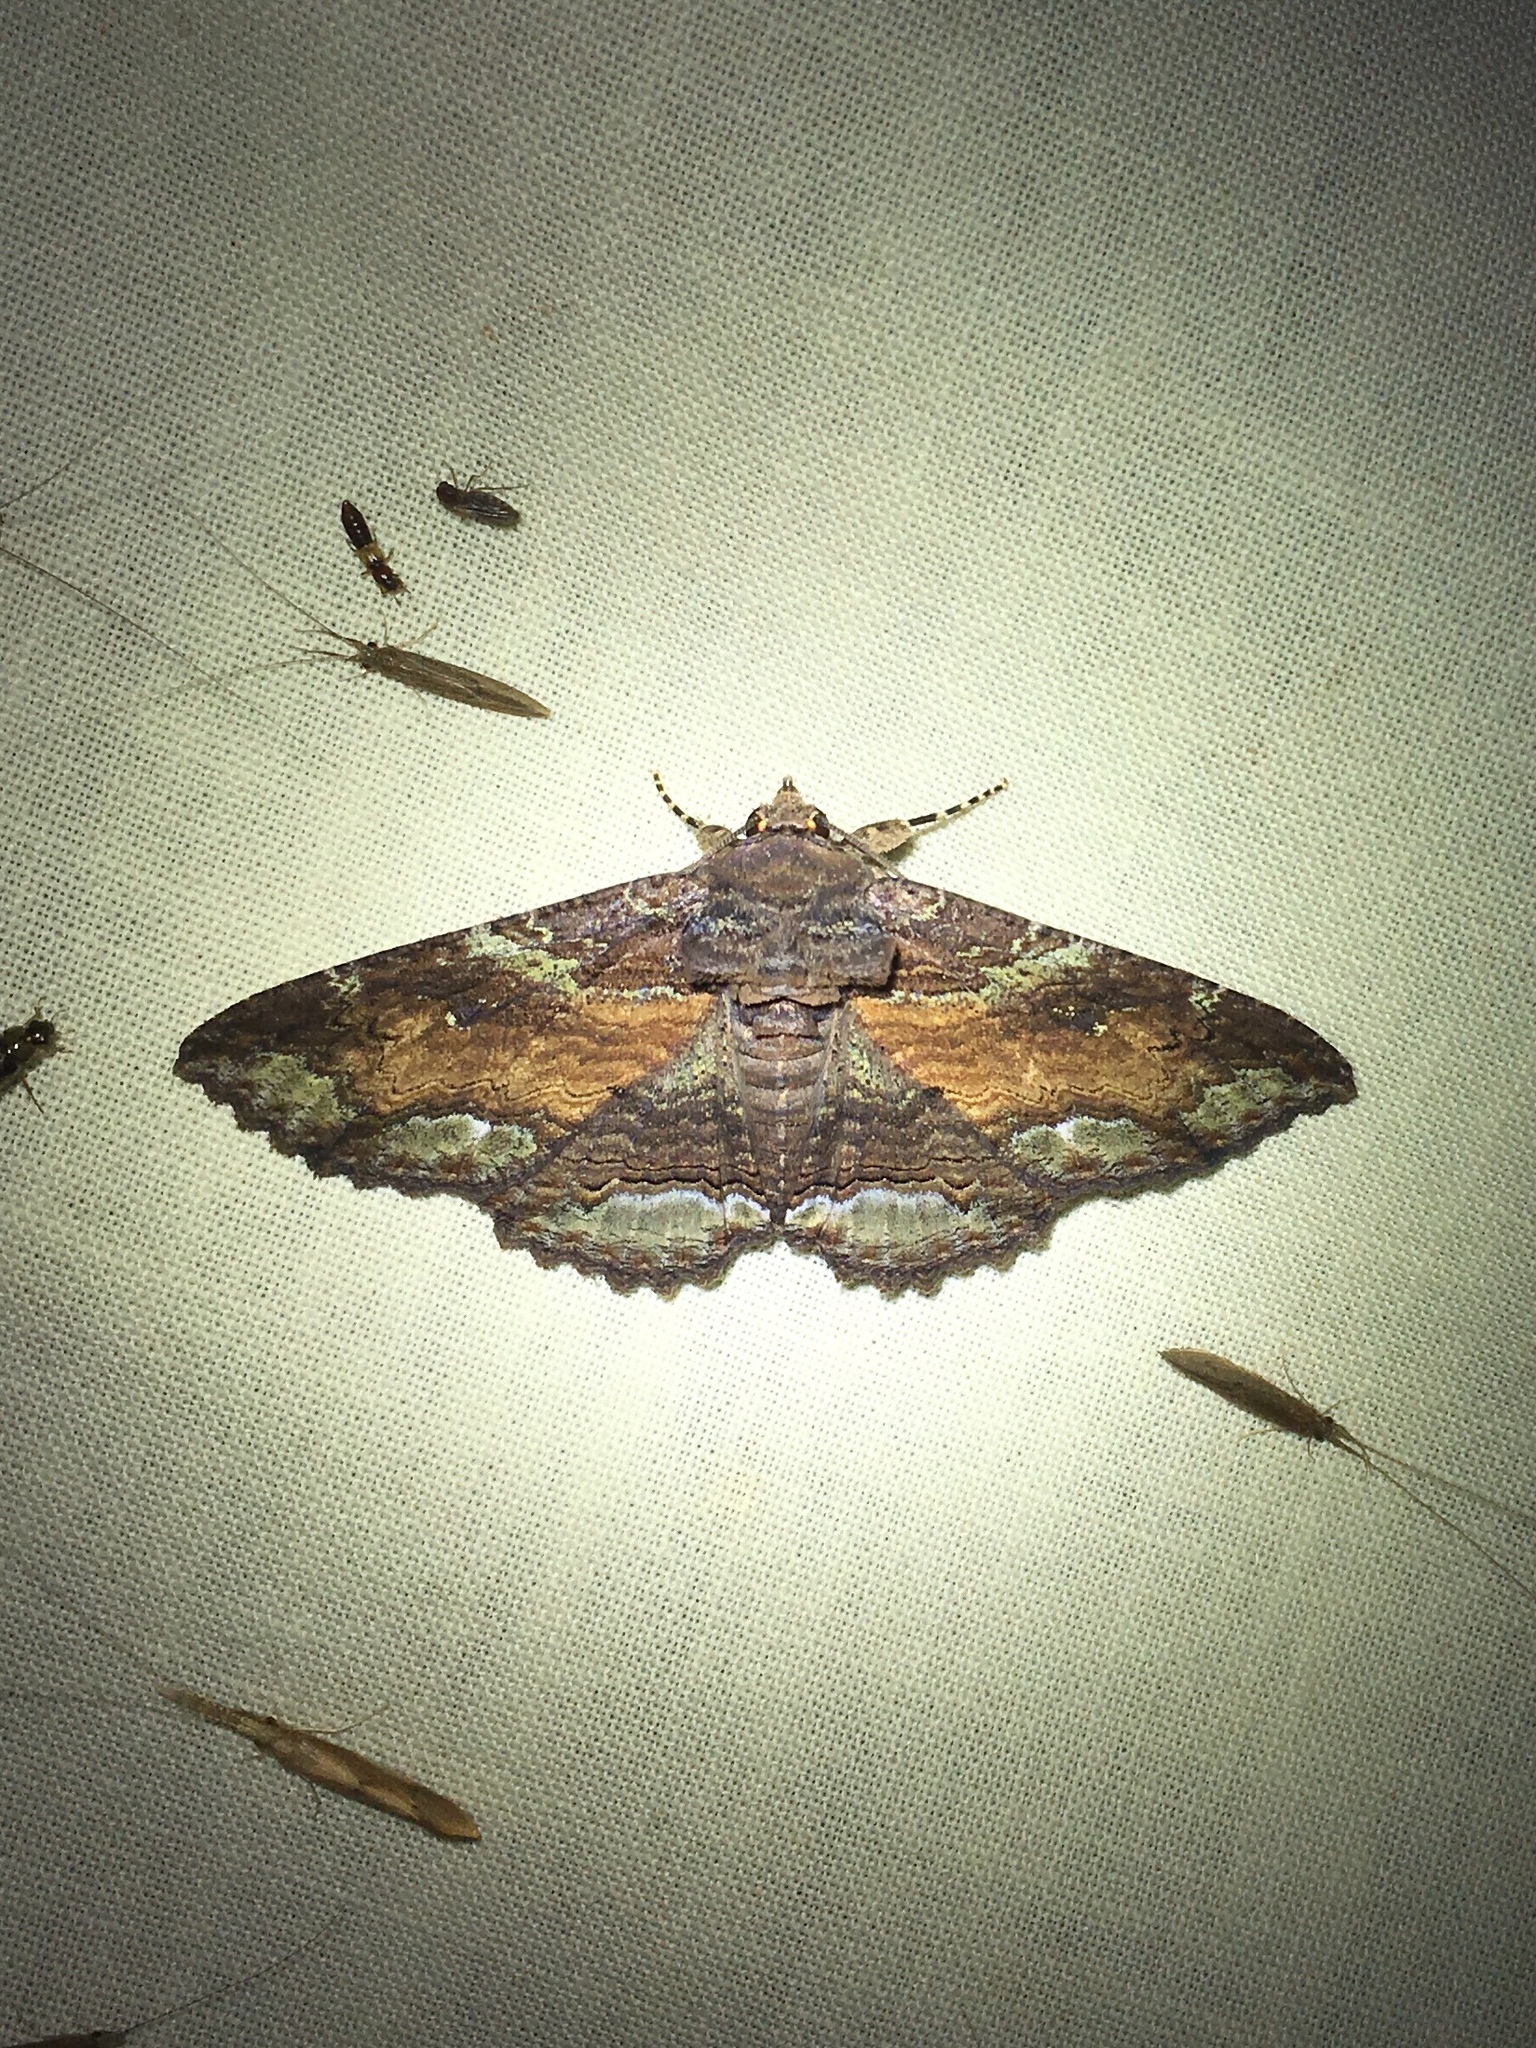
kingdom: Animalia
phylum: Arthropoda
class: Insecta
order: Lepidoptera
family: Erebidae
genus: Zale
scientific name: Zale lunata
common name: Lunate zale moth
